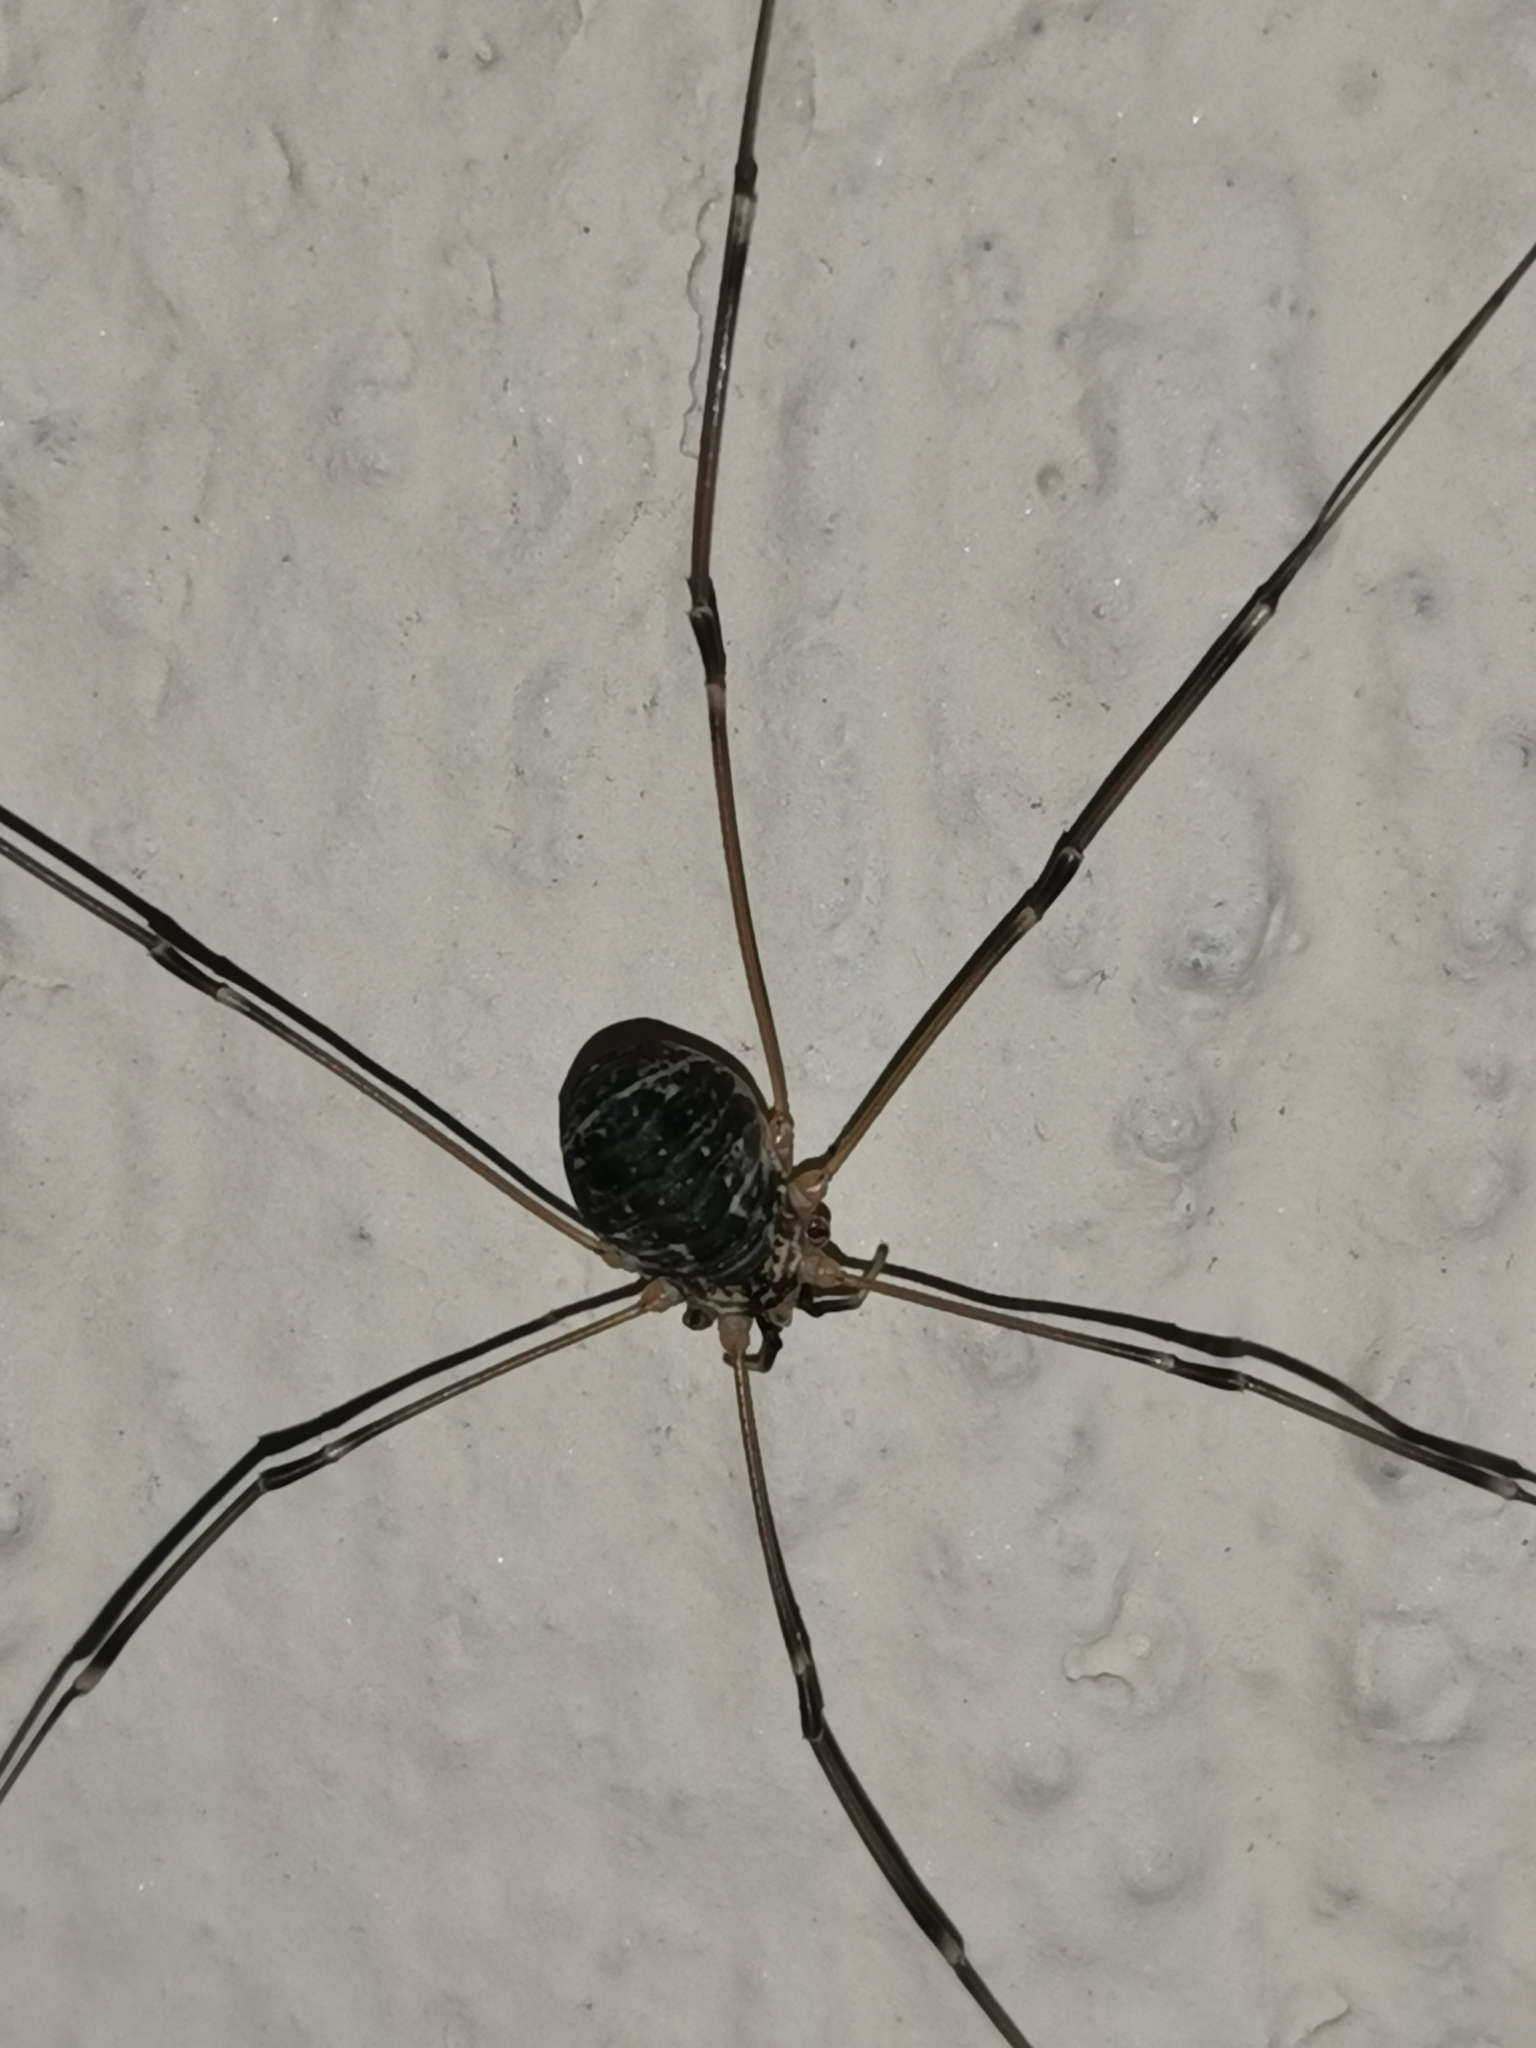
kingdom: Animalia
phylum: Arthropoda
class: Arachnida
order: Opiliones
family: Sclerosomatidae
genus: Leiobunum
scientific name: Leiobunum gracile
